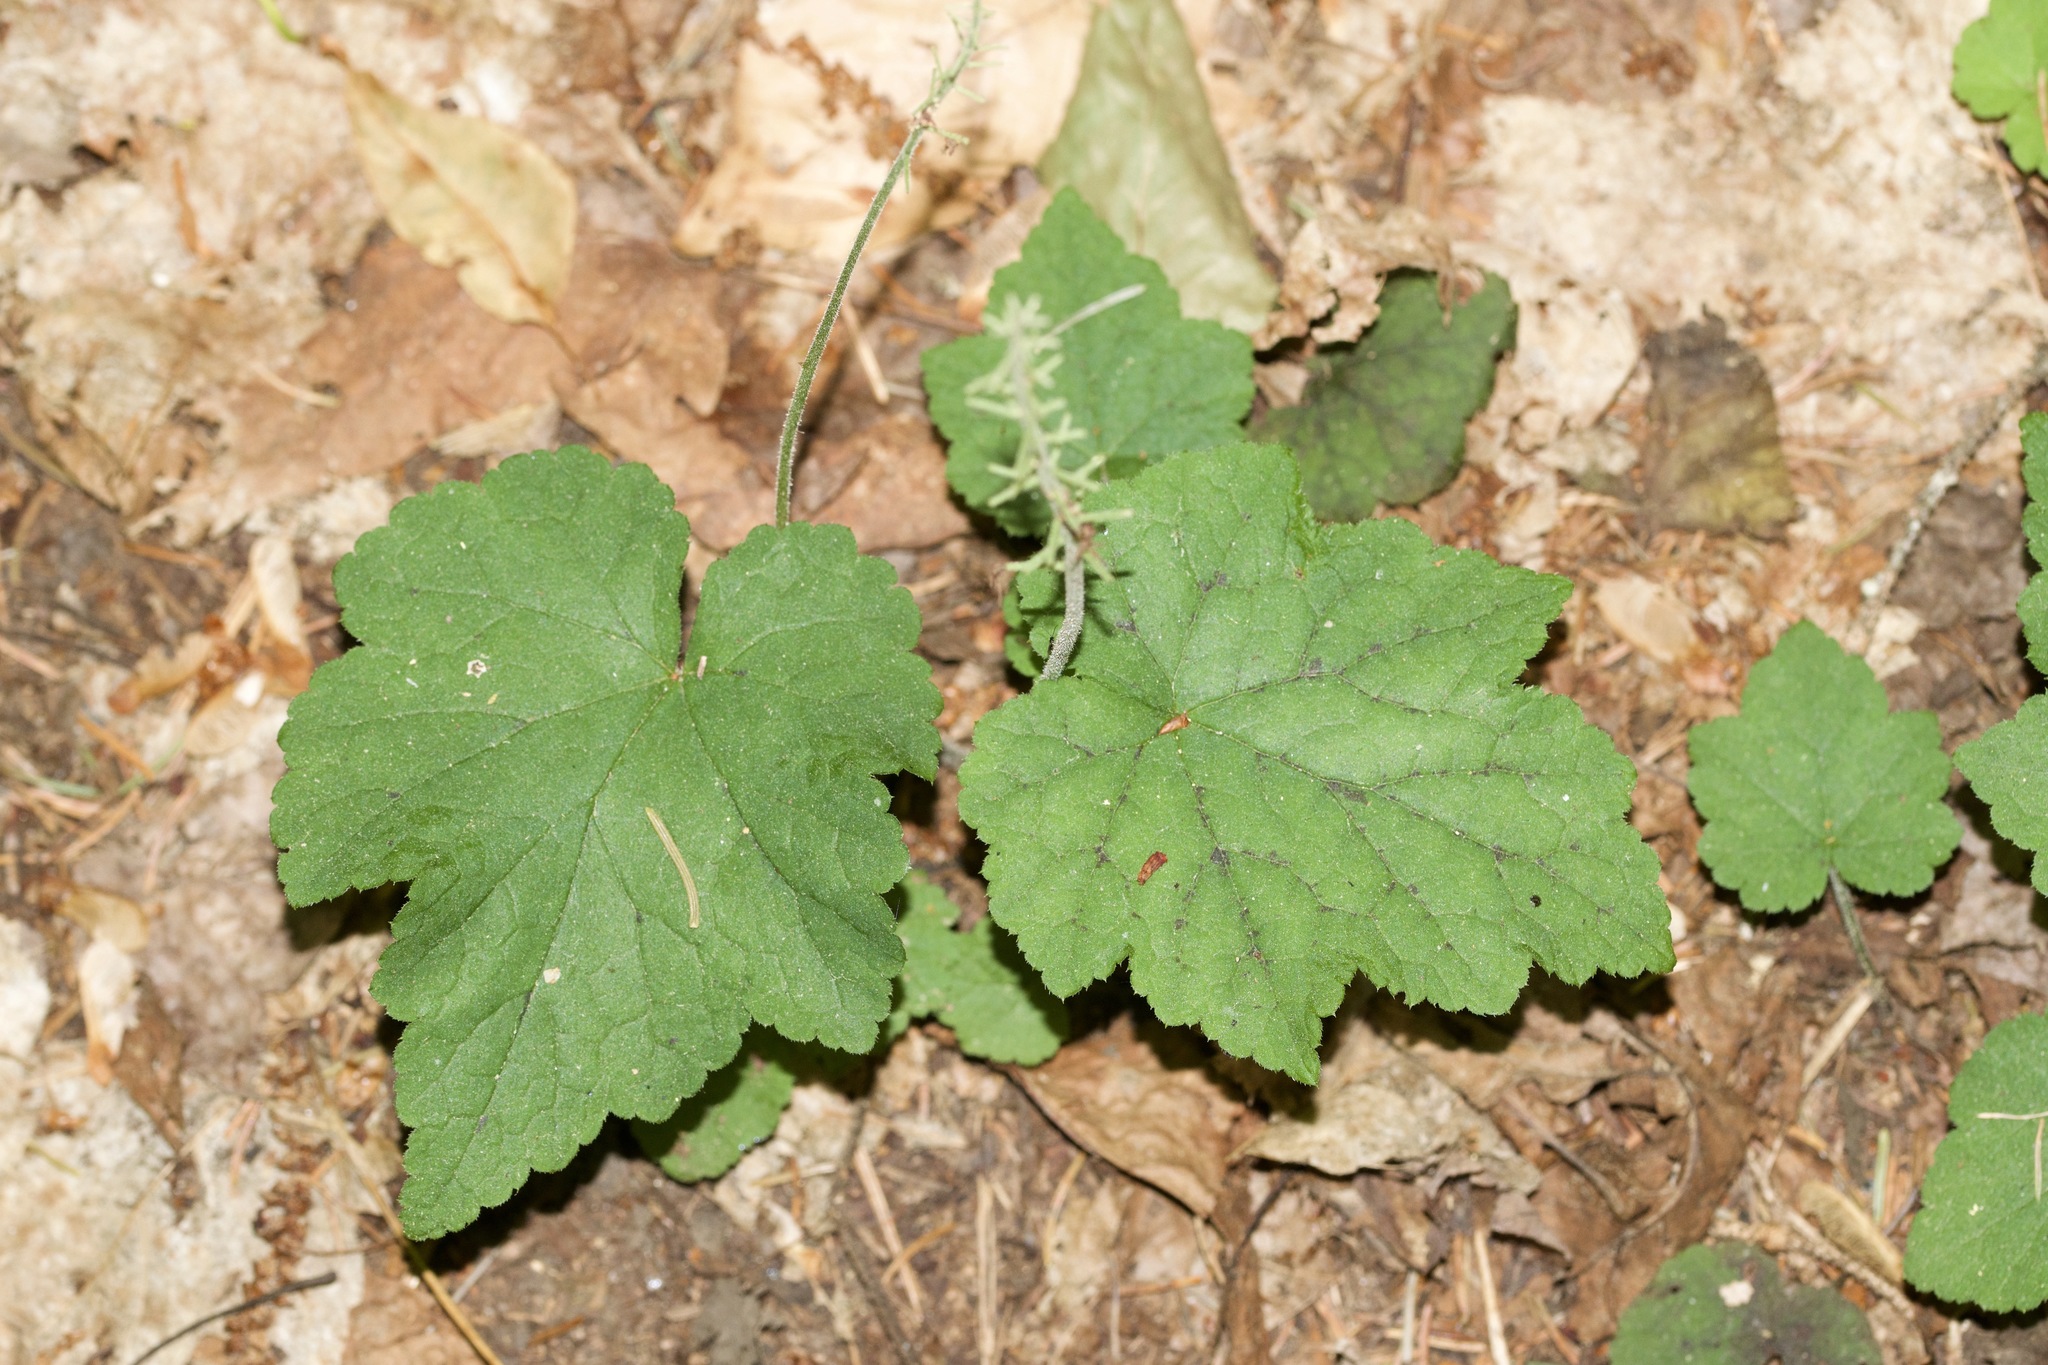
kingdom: Plantae
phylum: Tracheophyta
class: Magnoliopsida
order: Saxifragales
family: Saxifragaceae
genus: Tiarella
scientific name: Tiarella stolonifera
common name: Stoloniferous foamflower
